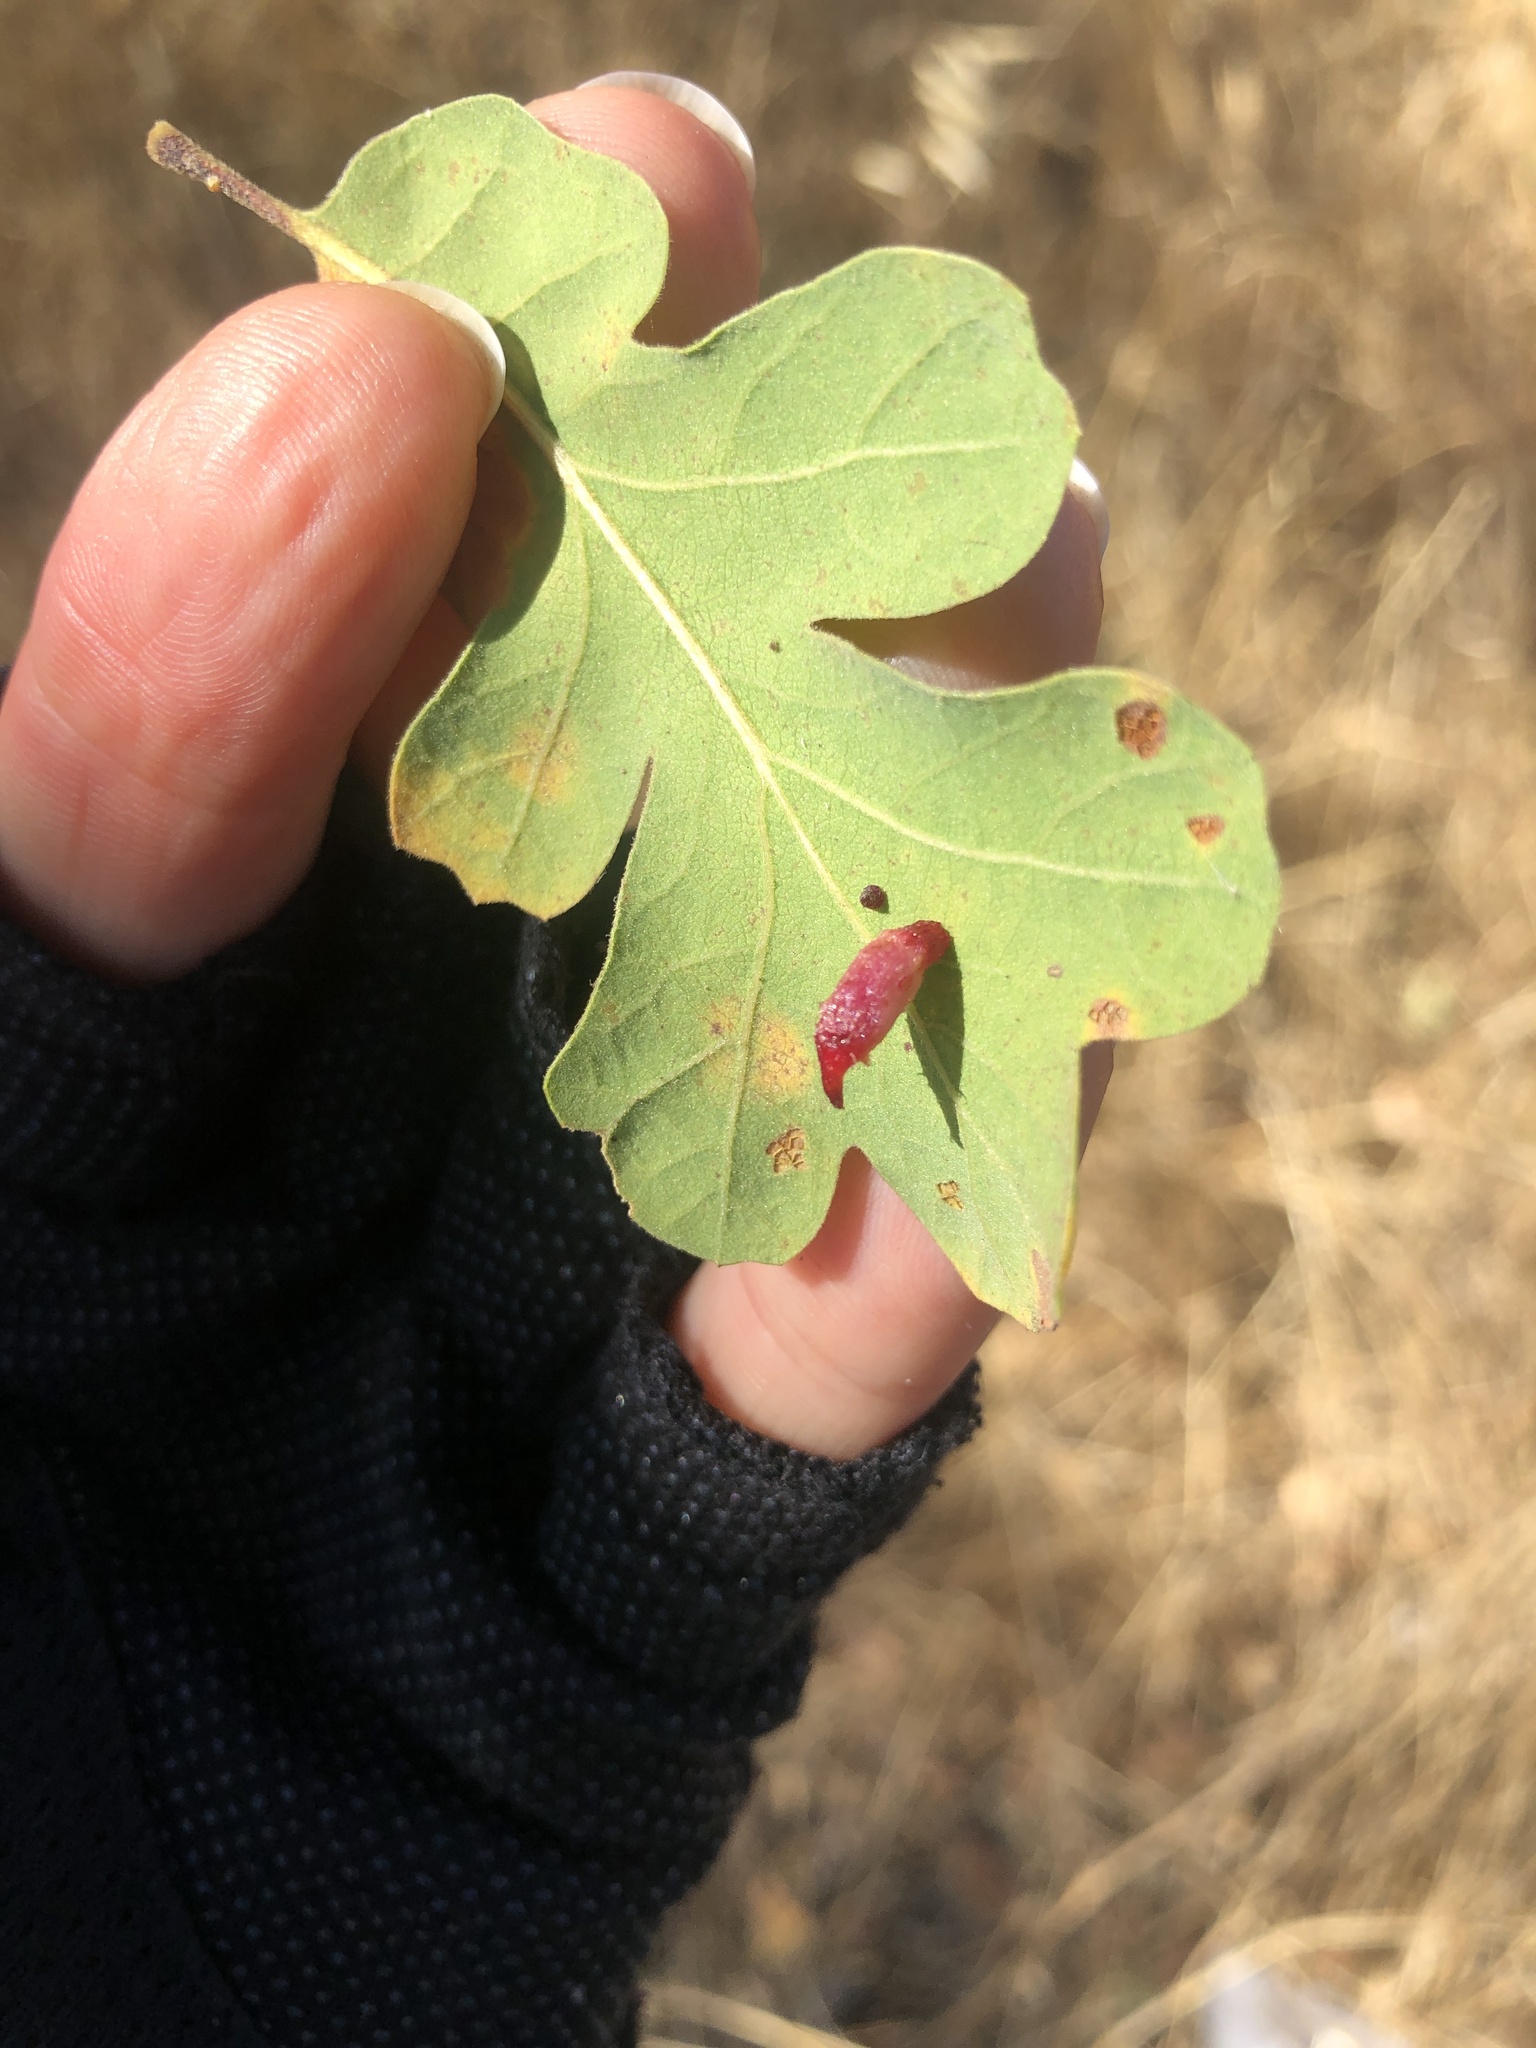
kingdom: Animalia
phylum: Arthropoda
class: Insecta
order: Hymenoptera
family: Cynipidae
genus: Andricus
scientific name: Andricus
